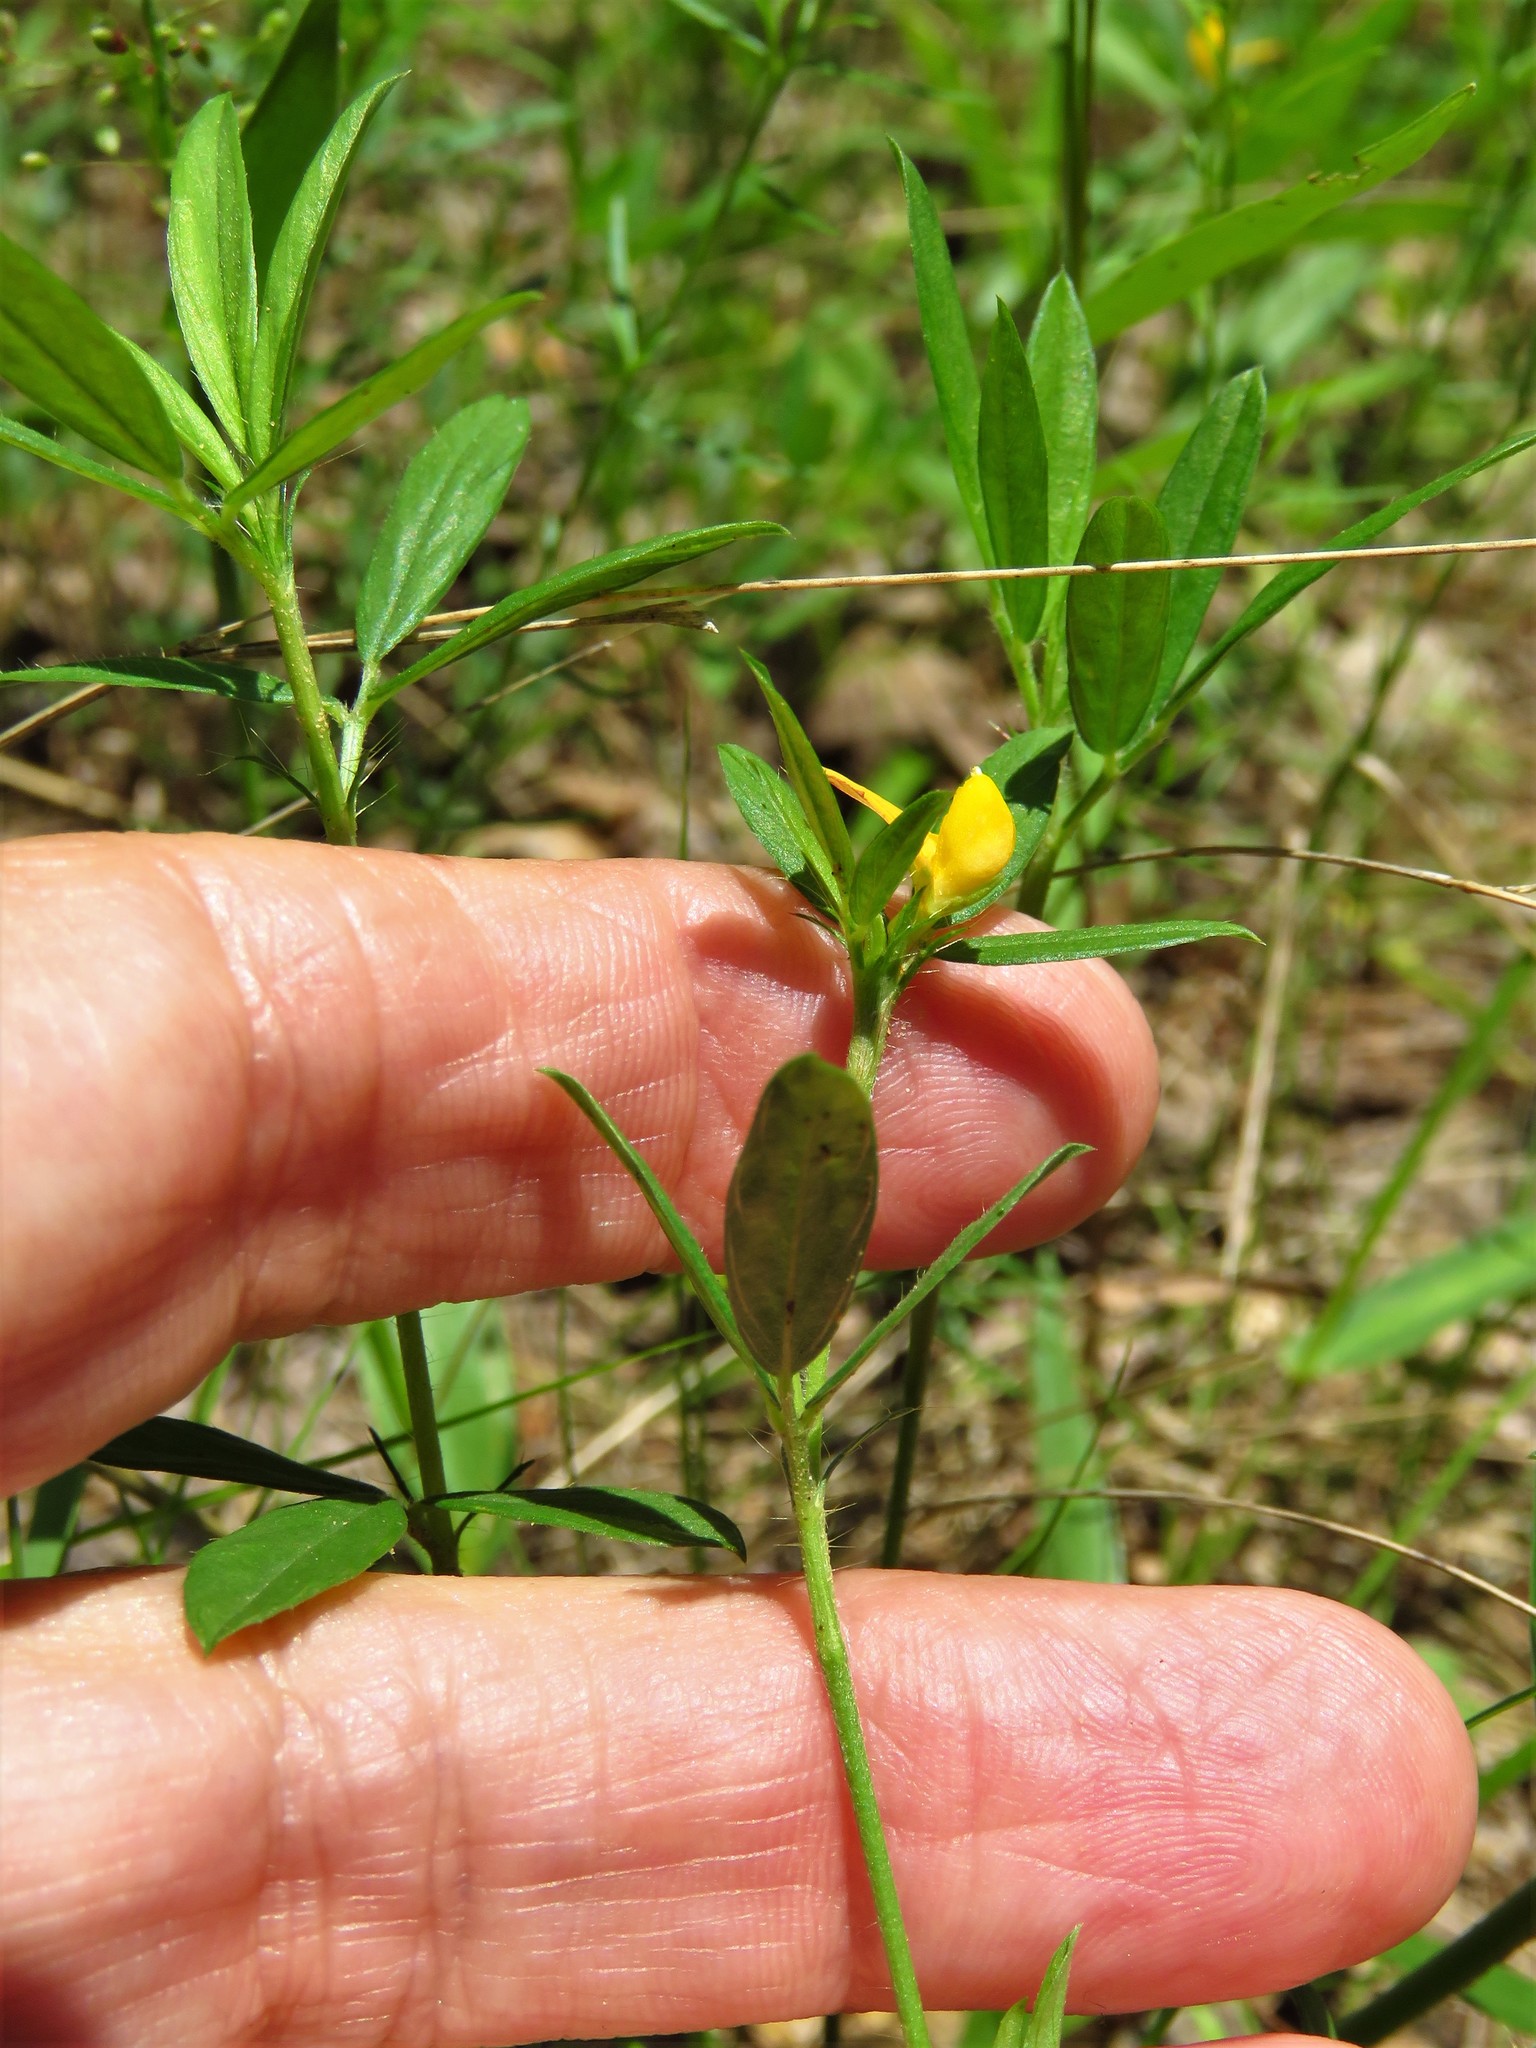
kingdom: Plantae
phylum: Tracheophyta
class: Magnoliopsida
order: Fabales
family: Fabaceae
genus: Stylosanthes
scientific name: Stylosanthes biflora
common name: Two-flower pencil-flower
